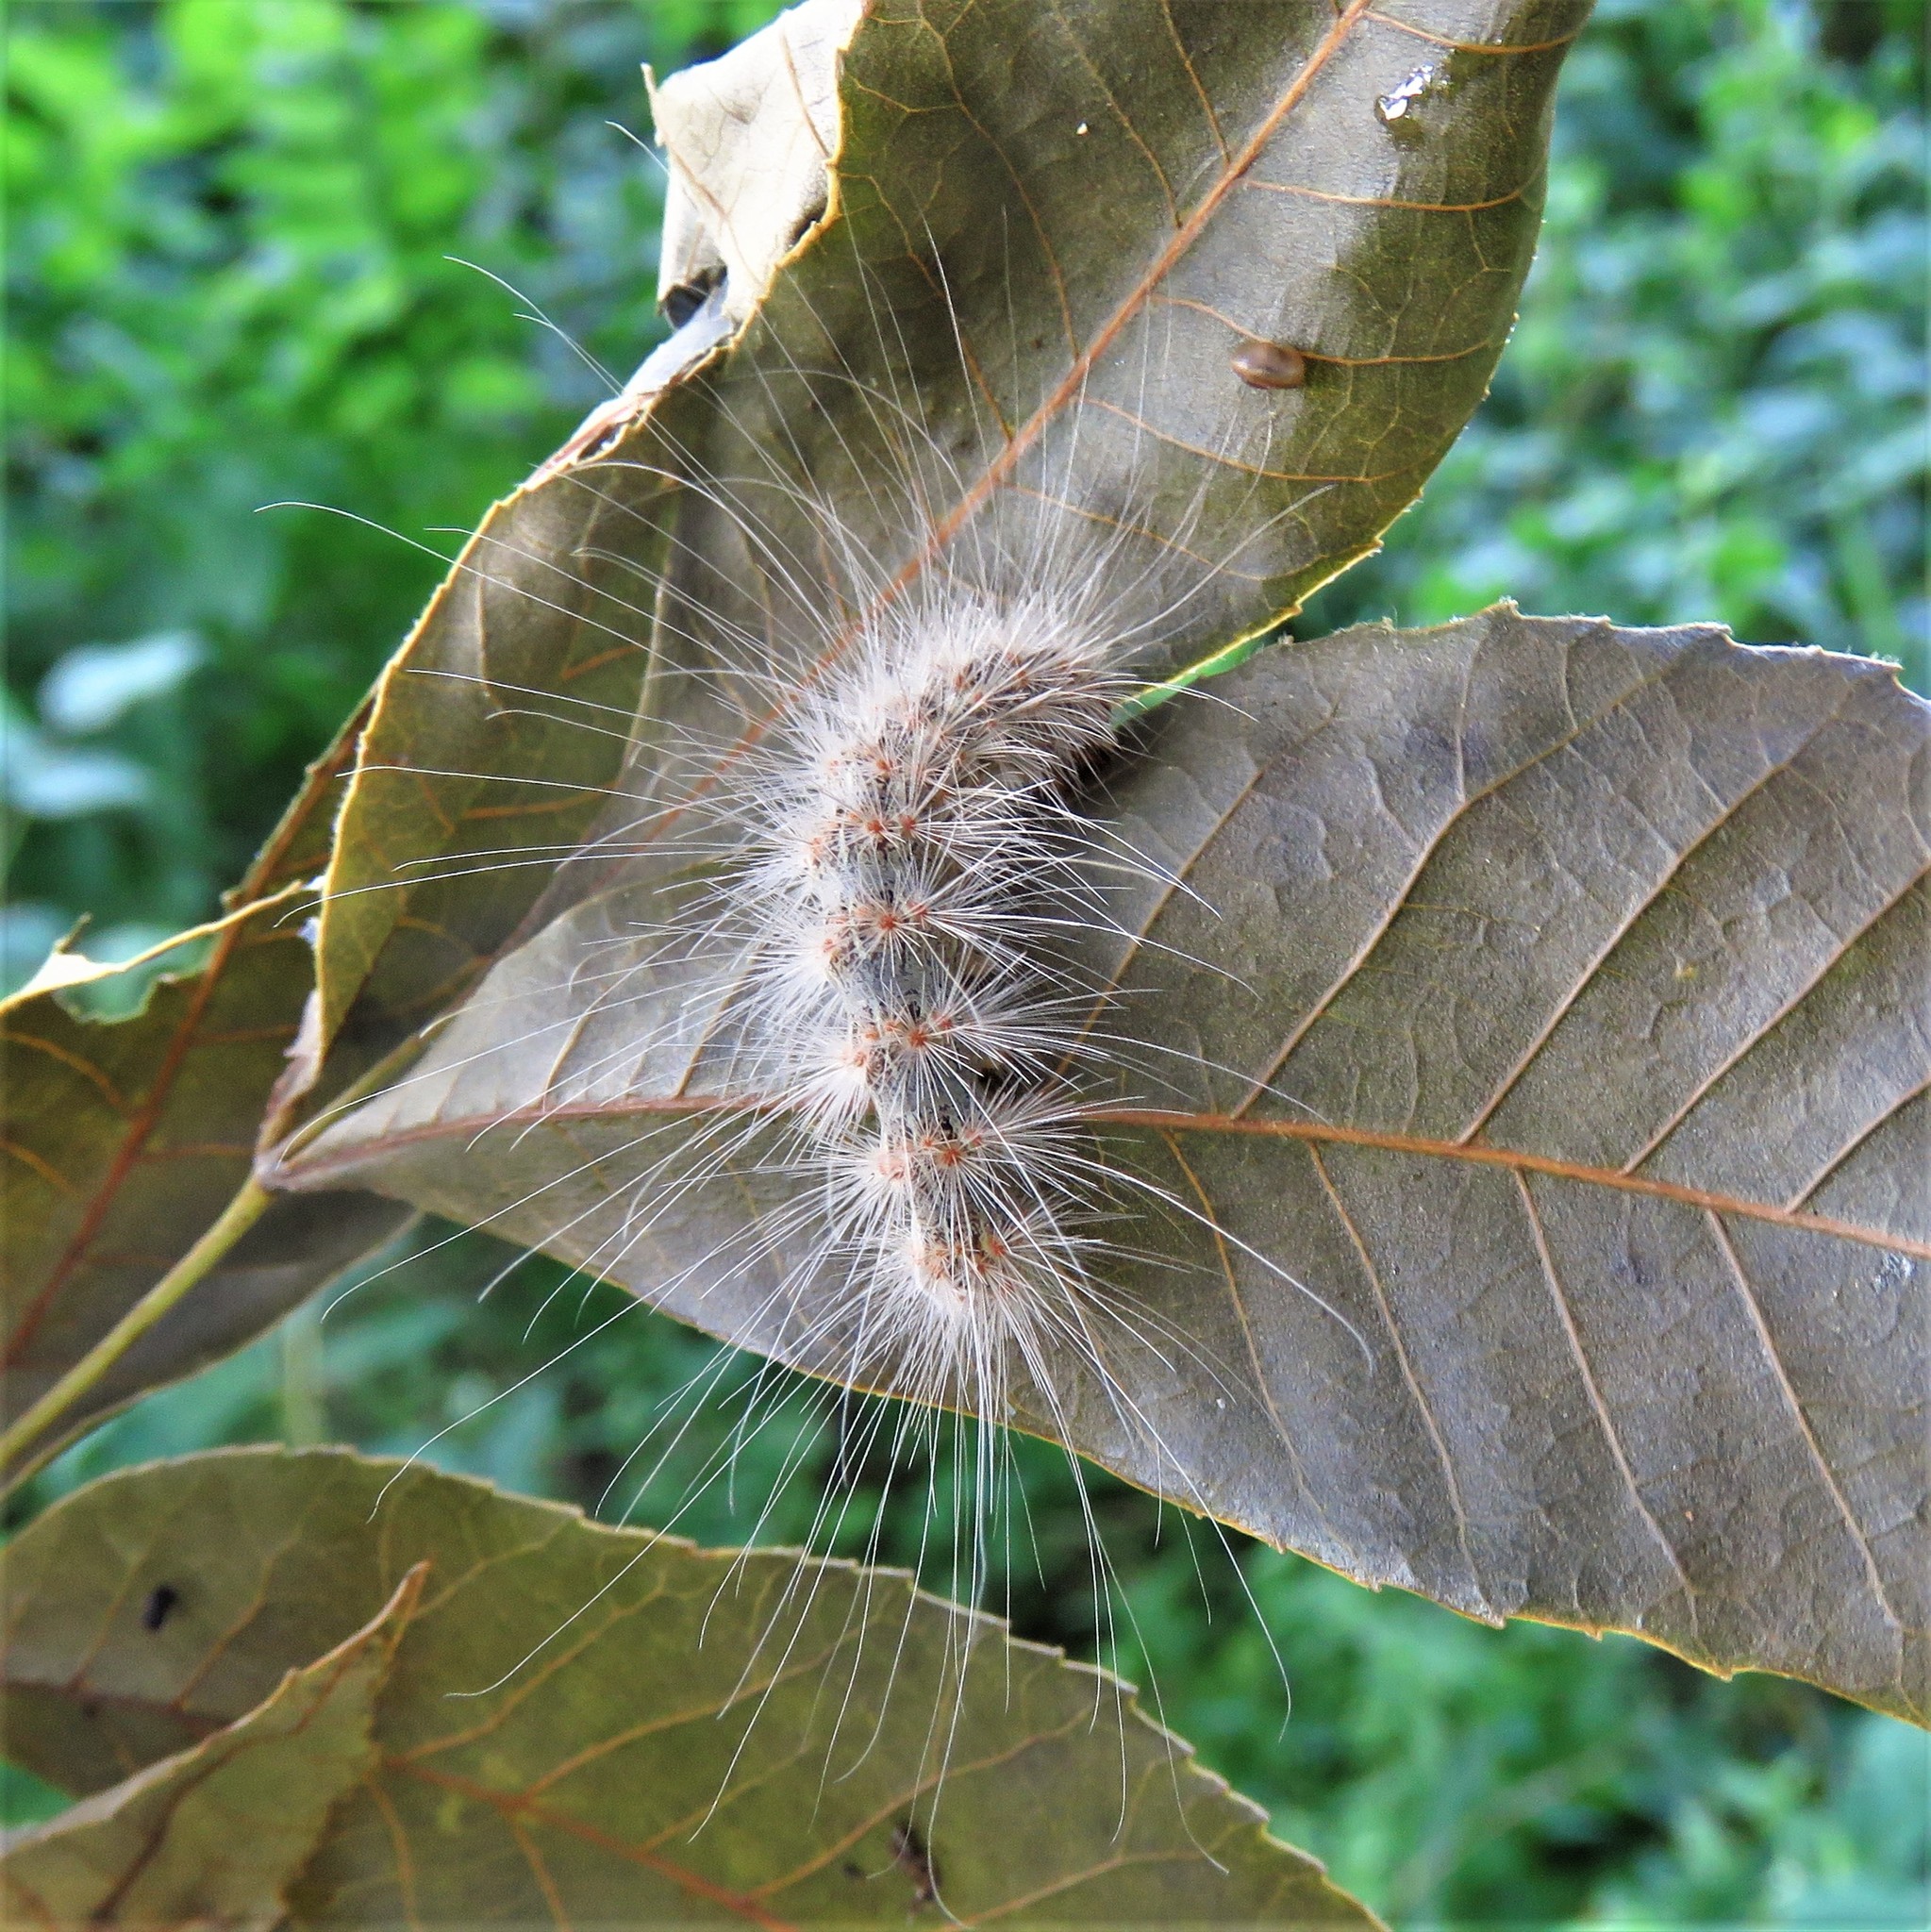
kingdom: Animalia
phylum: Arthropoda
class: Insecta
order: Lepidoptera
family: Erebidae
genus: Hyphantria
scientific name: Hyphantria cunea
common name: American white moth
